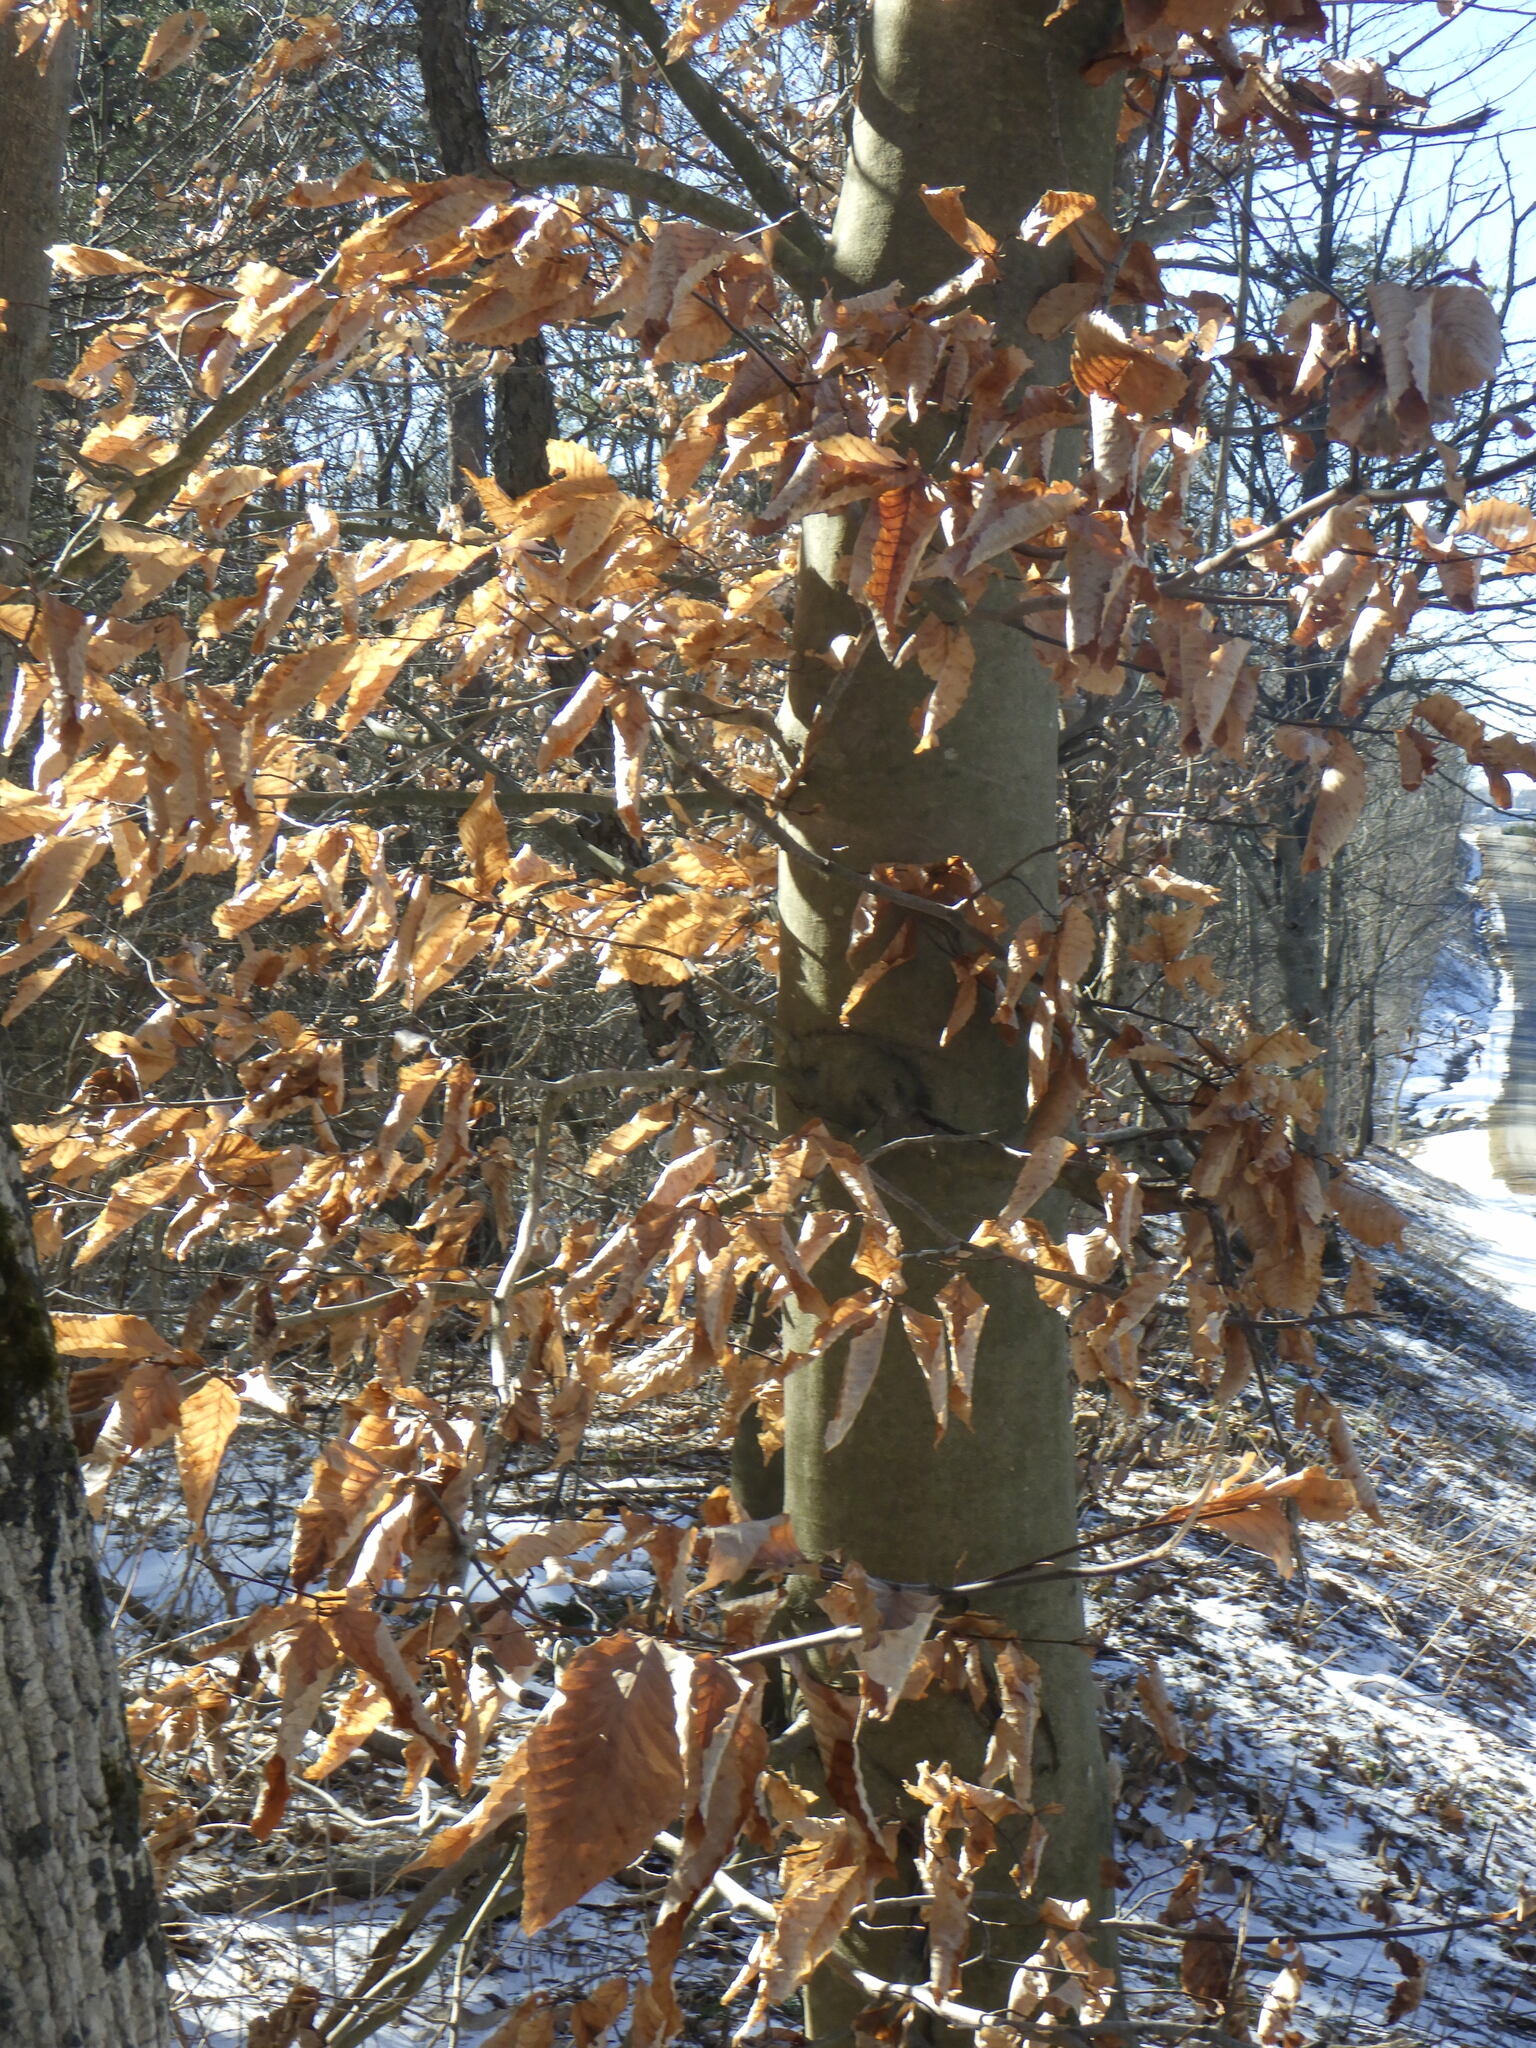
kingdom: Plantae
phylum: Tracheophyta
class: Magnoliopsida
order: Fagales
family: Fagaceae
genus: Fagus
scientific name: Fagus grandifolia
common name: American beech
